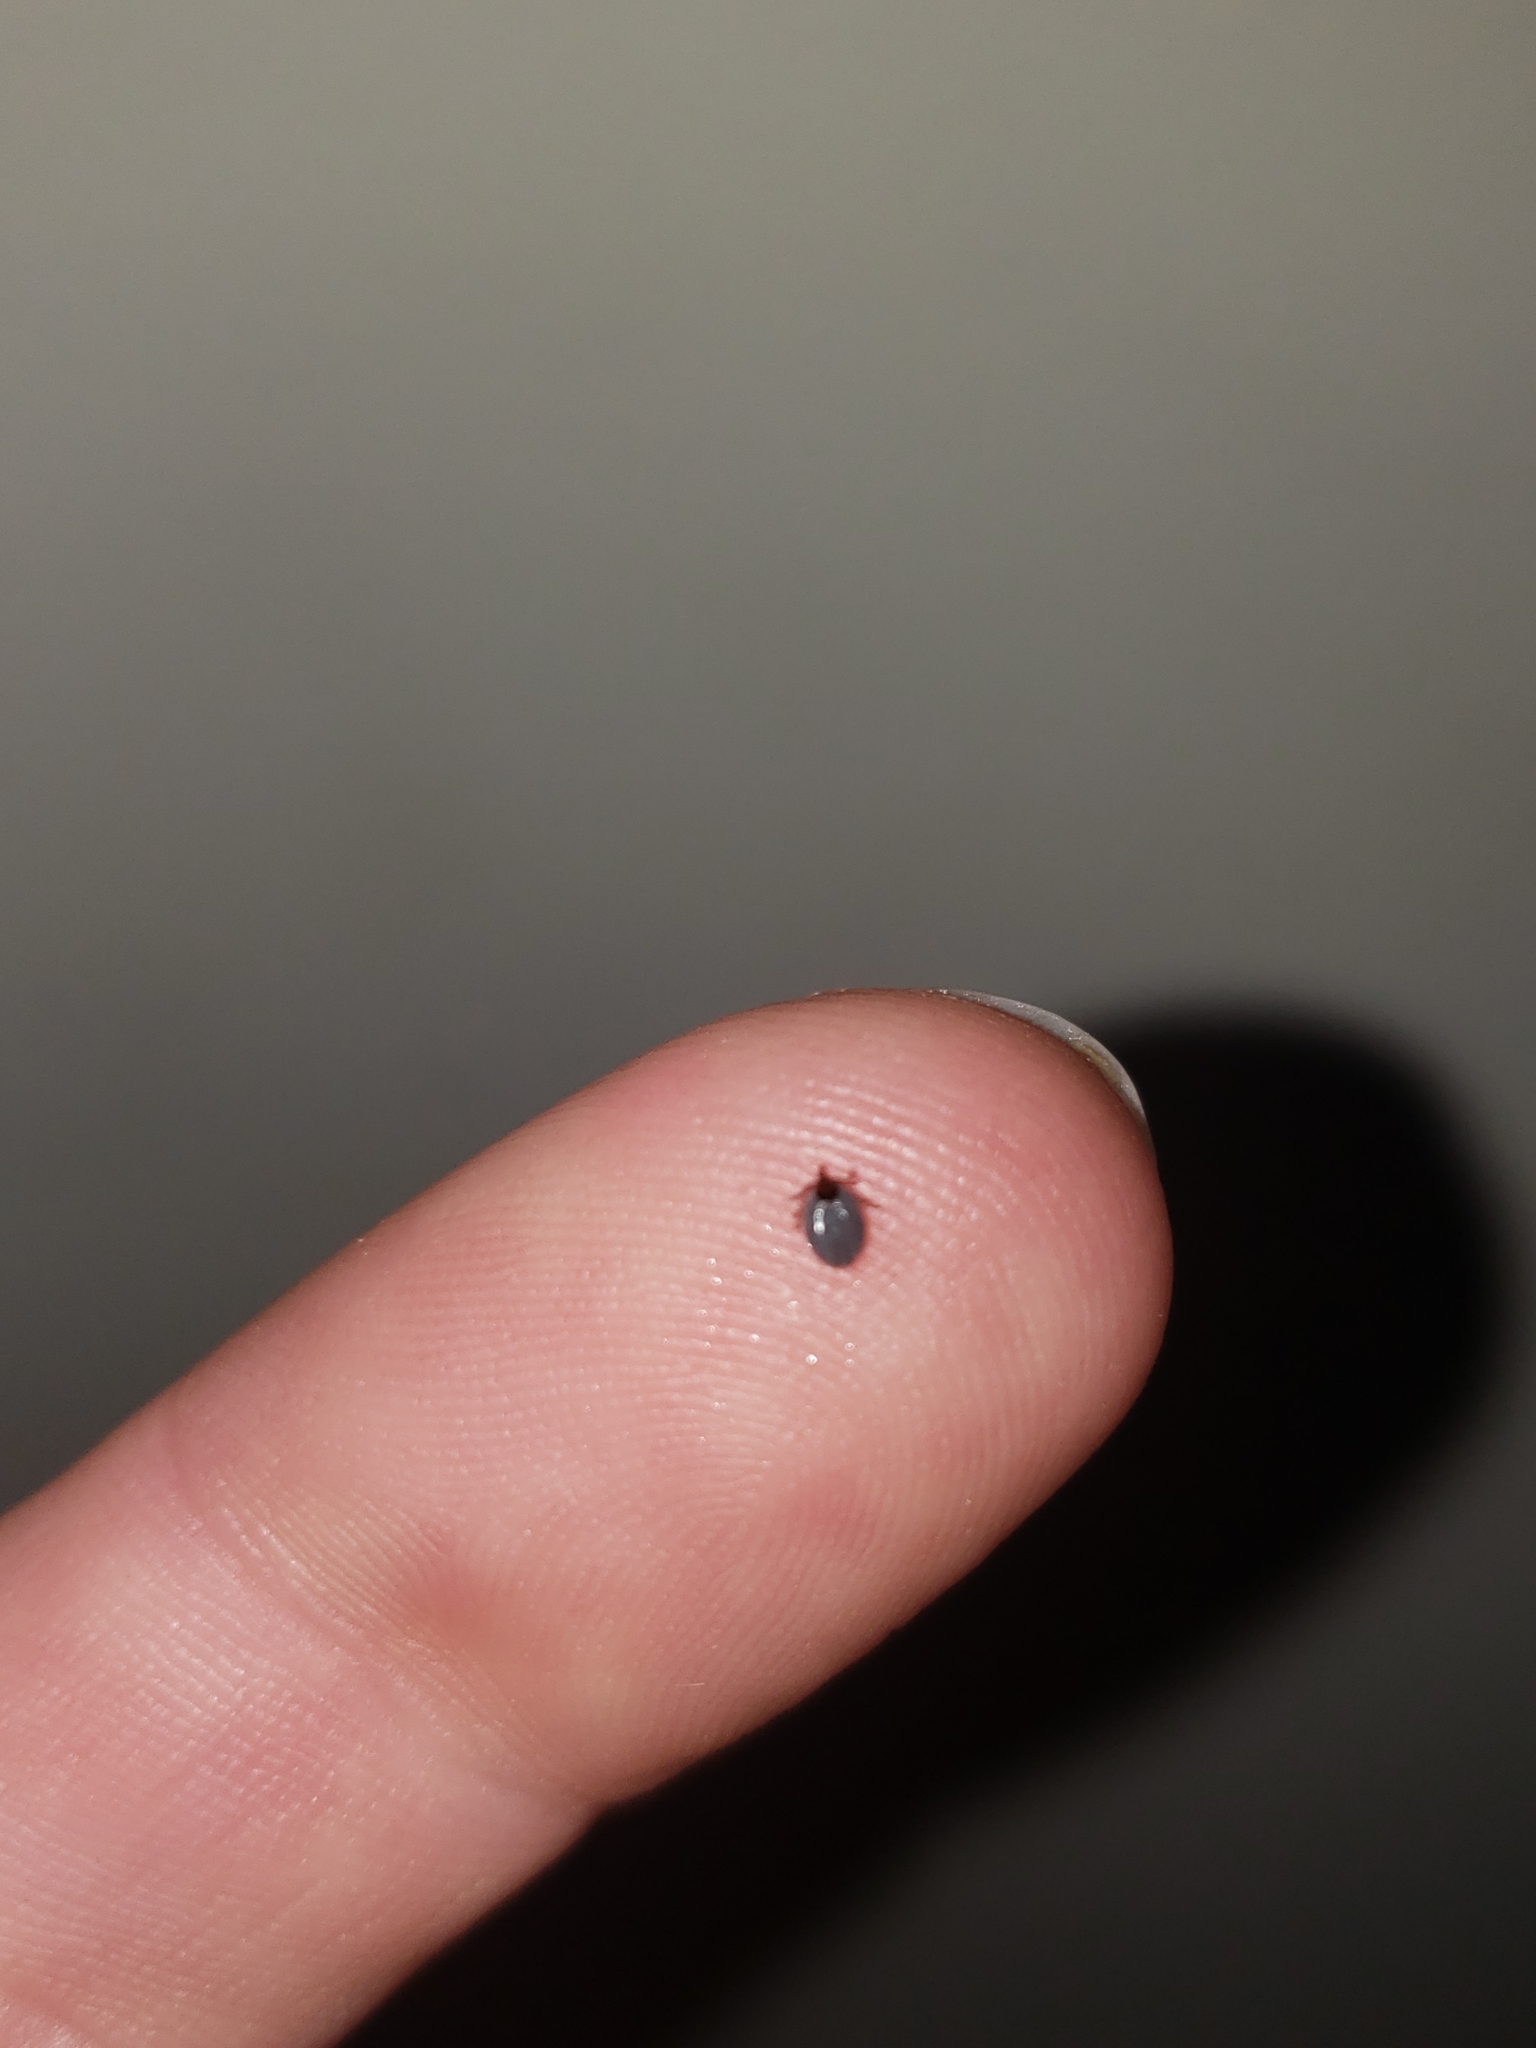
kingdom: Animalia
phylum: Arthropoda
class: Arachnida
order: Ixodida
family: Ixodidae
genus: Ixodes
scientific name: Ixodes scapularis
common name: Black legged tick
